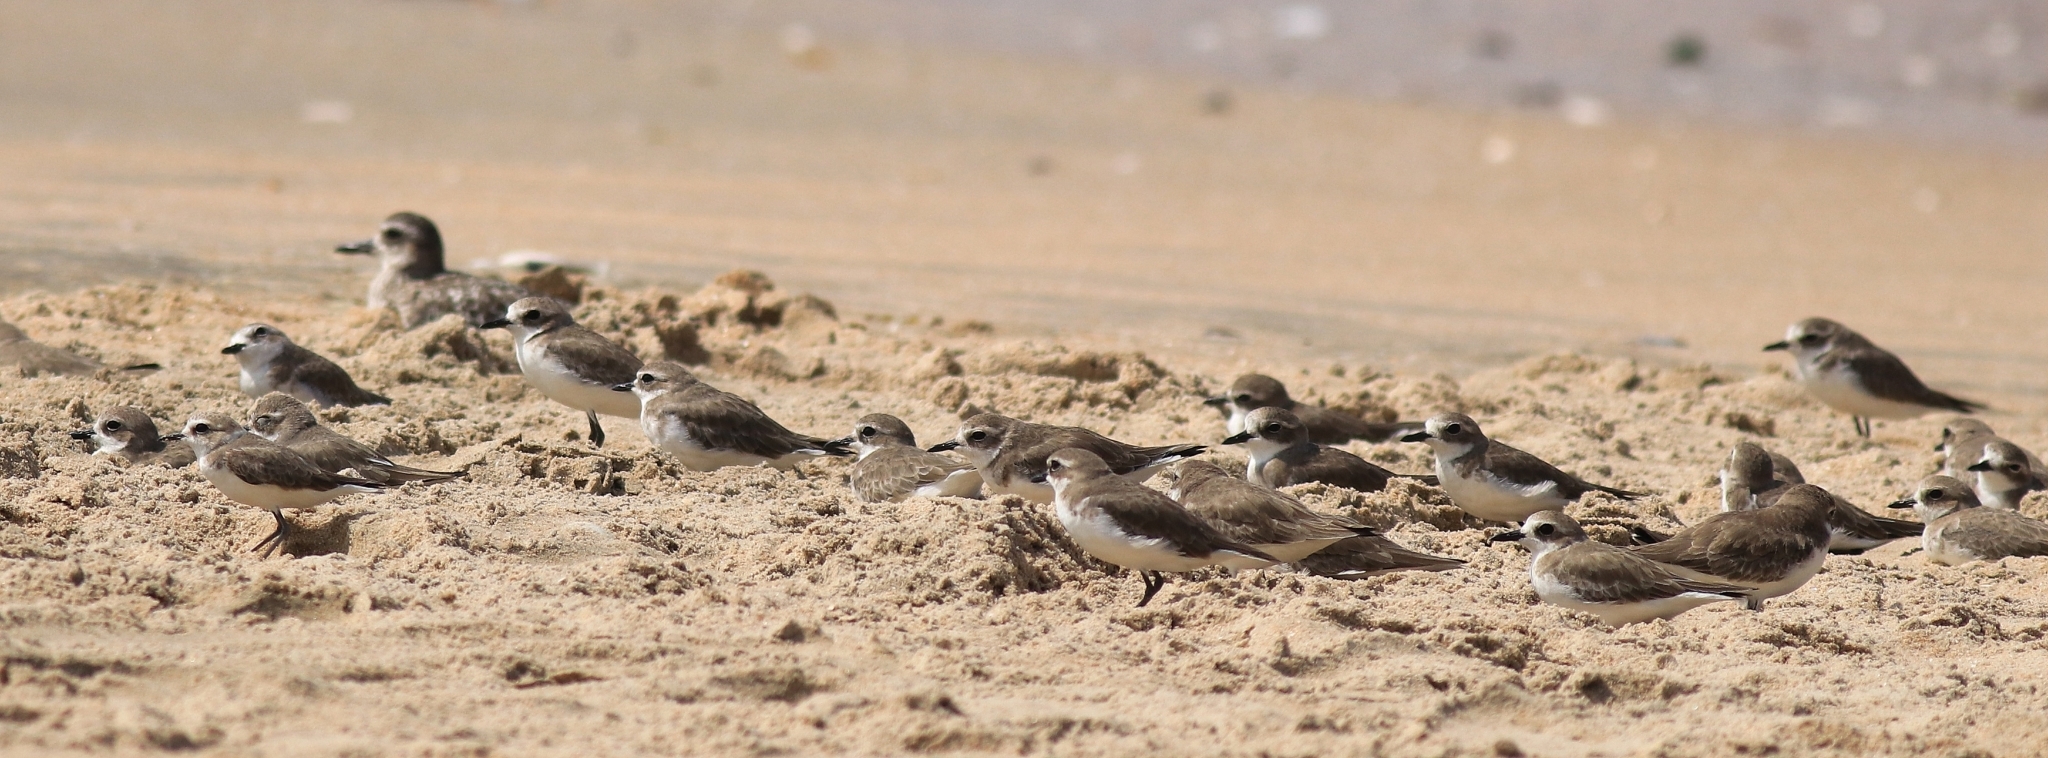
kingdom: Animalia
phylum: Chordata
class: Aves
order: Charadriiformes
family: Charadriidae
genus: Anarhynchus
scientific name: Anarhynchus
